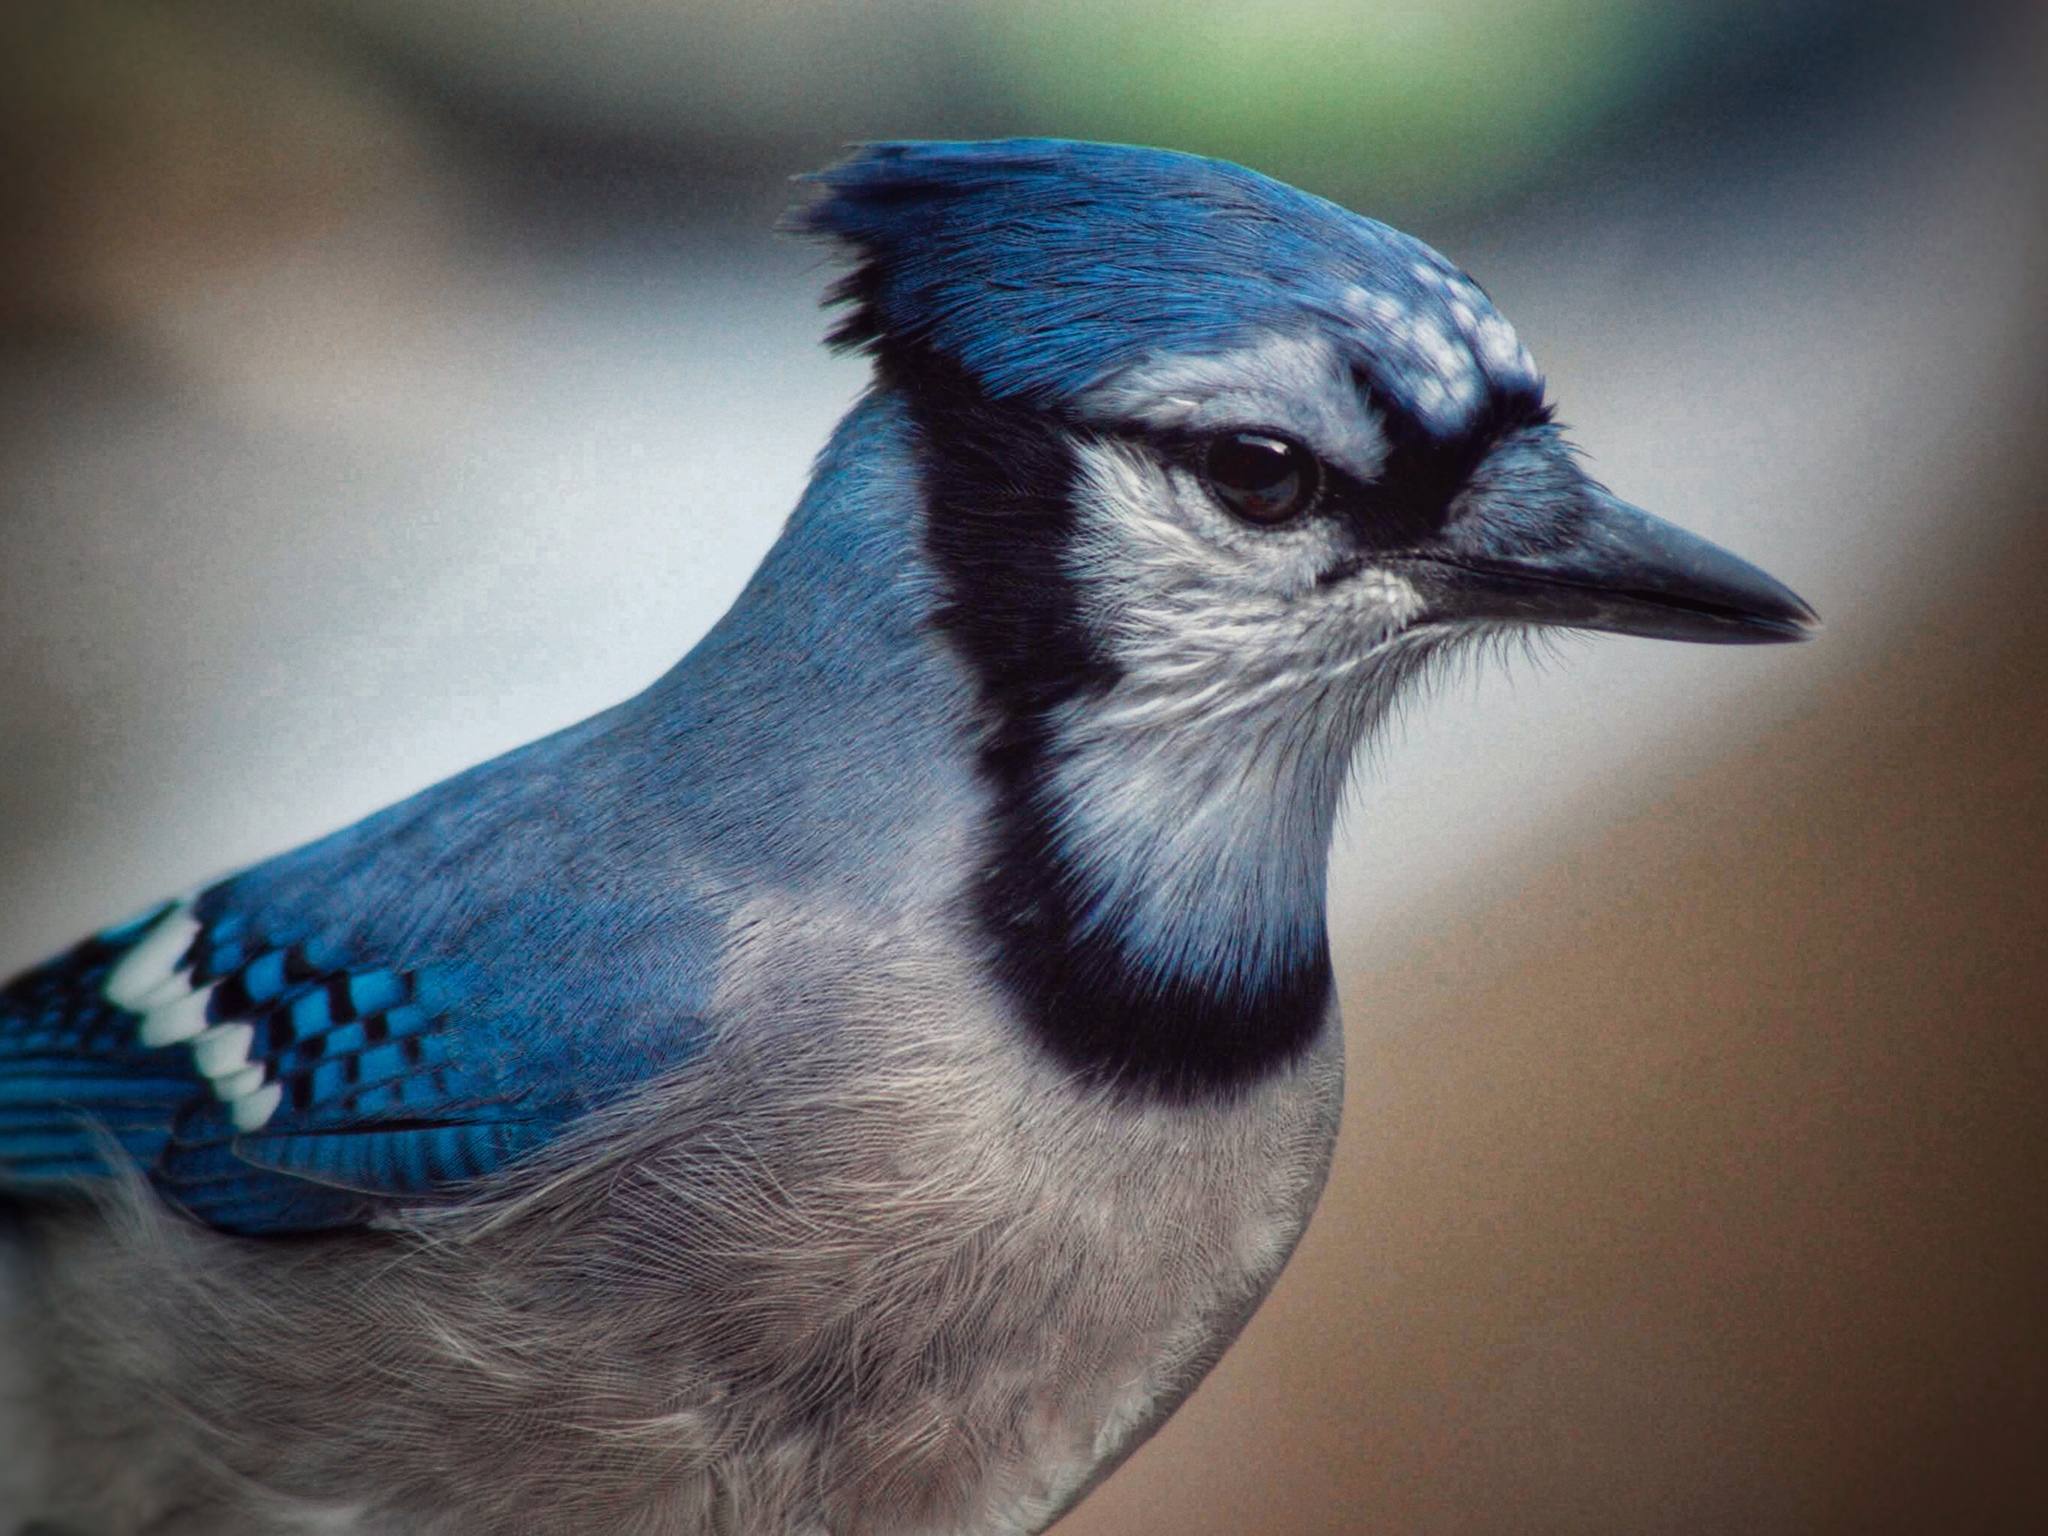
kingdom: Animalia
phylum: Chordata
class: Aves
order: Passeriformes
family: Corvidae
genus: Cyanocitta
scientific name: Cyanocitta cristata
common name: Blue jay
